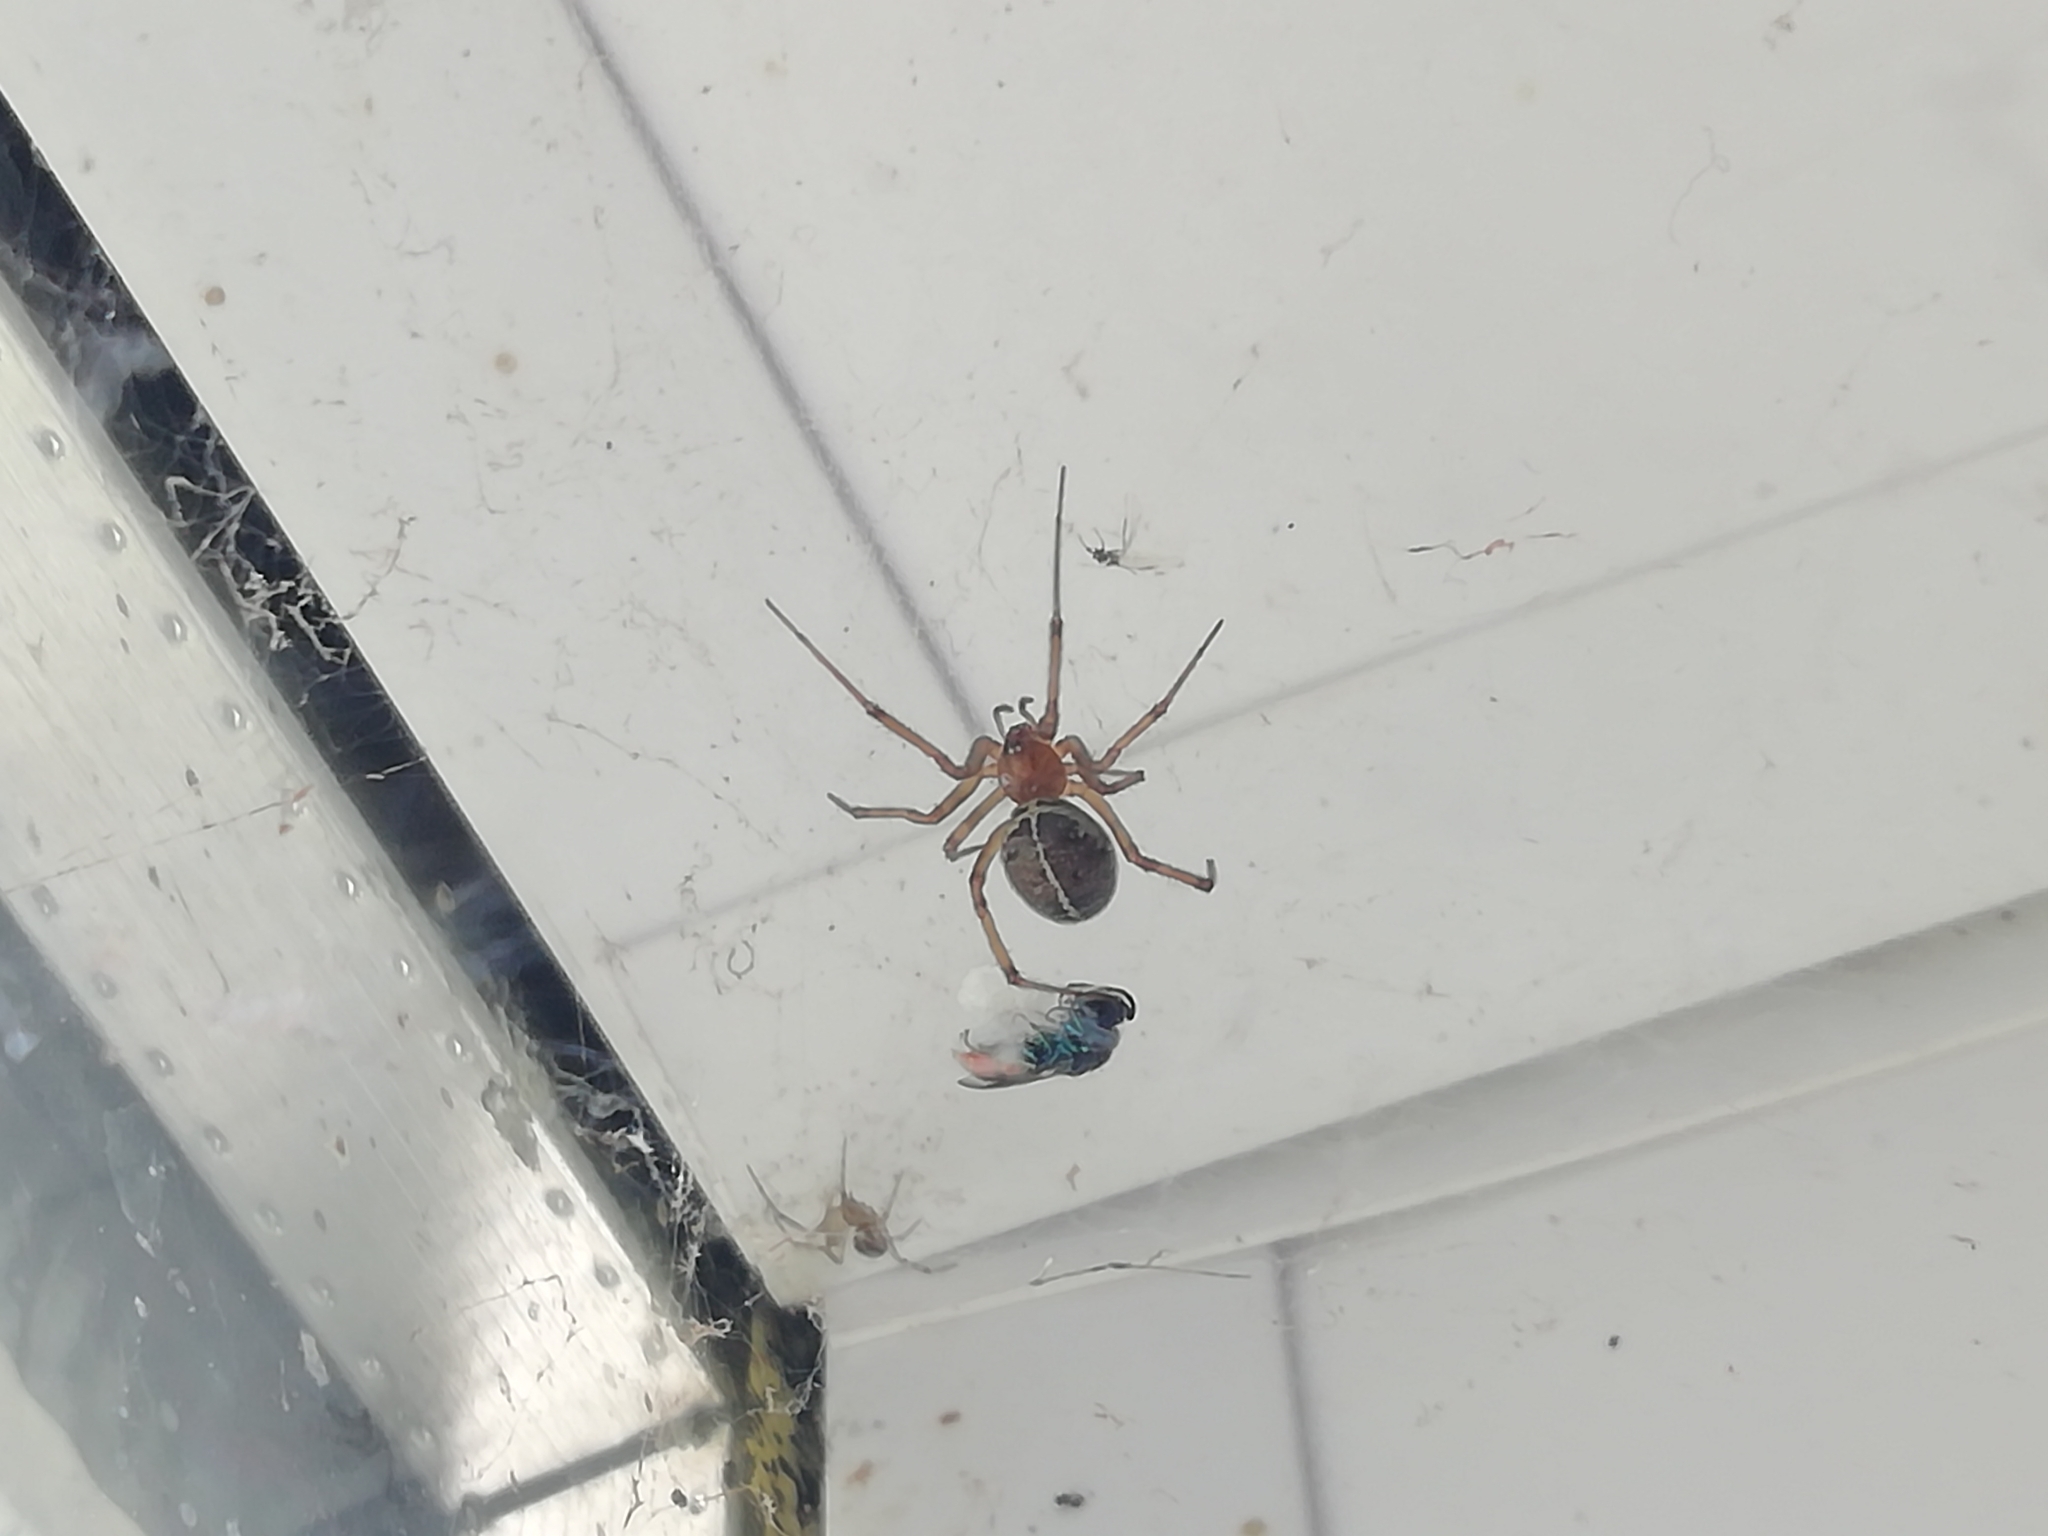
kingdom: Animalia
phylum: Arthropoda
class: Arachnida
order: Araneae
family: Theridiidae
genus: Steatoda
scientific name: Steatoda castanea
